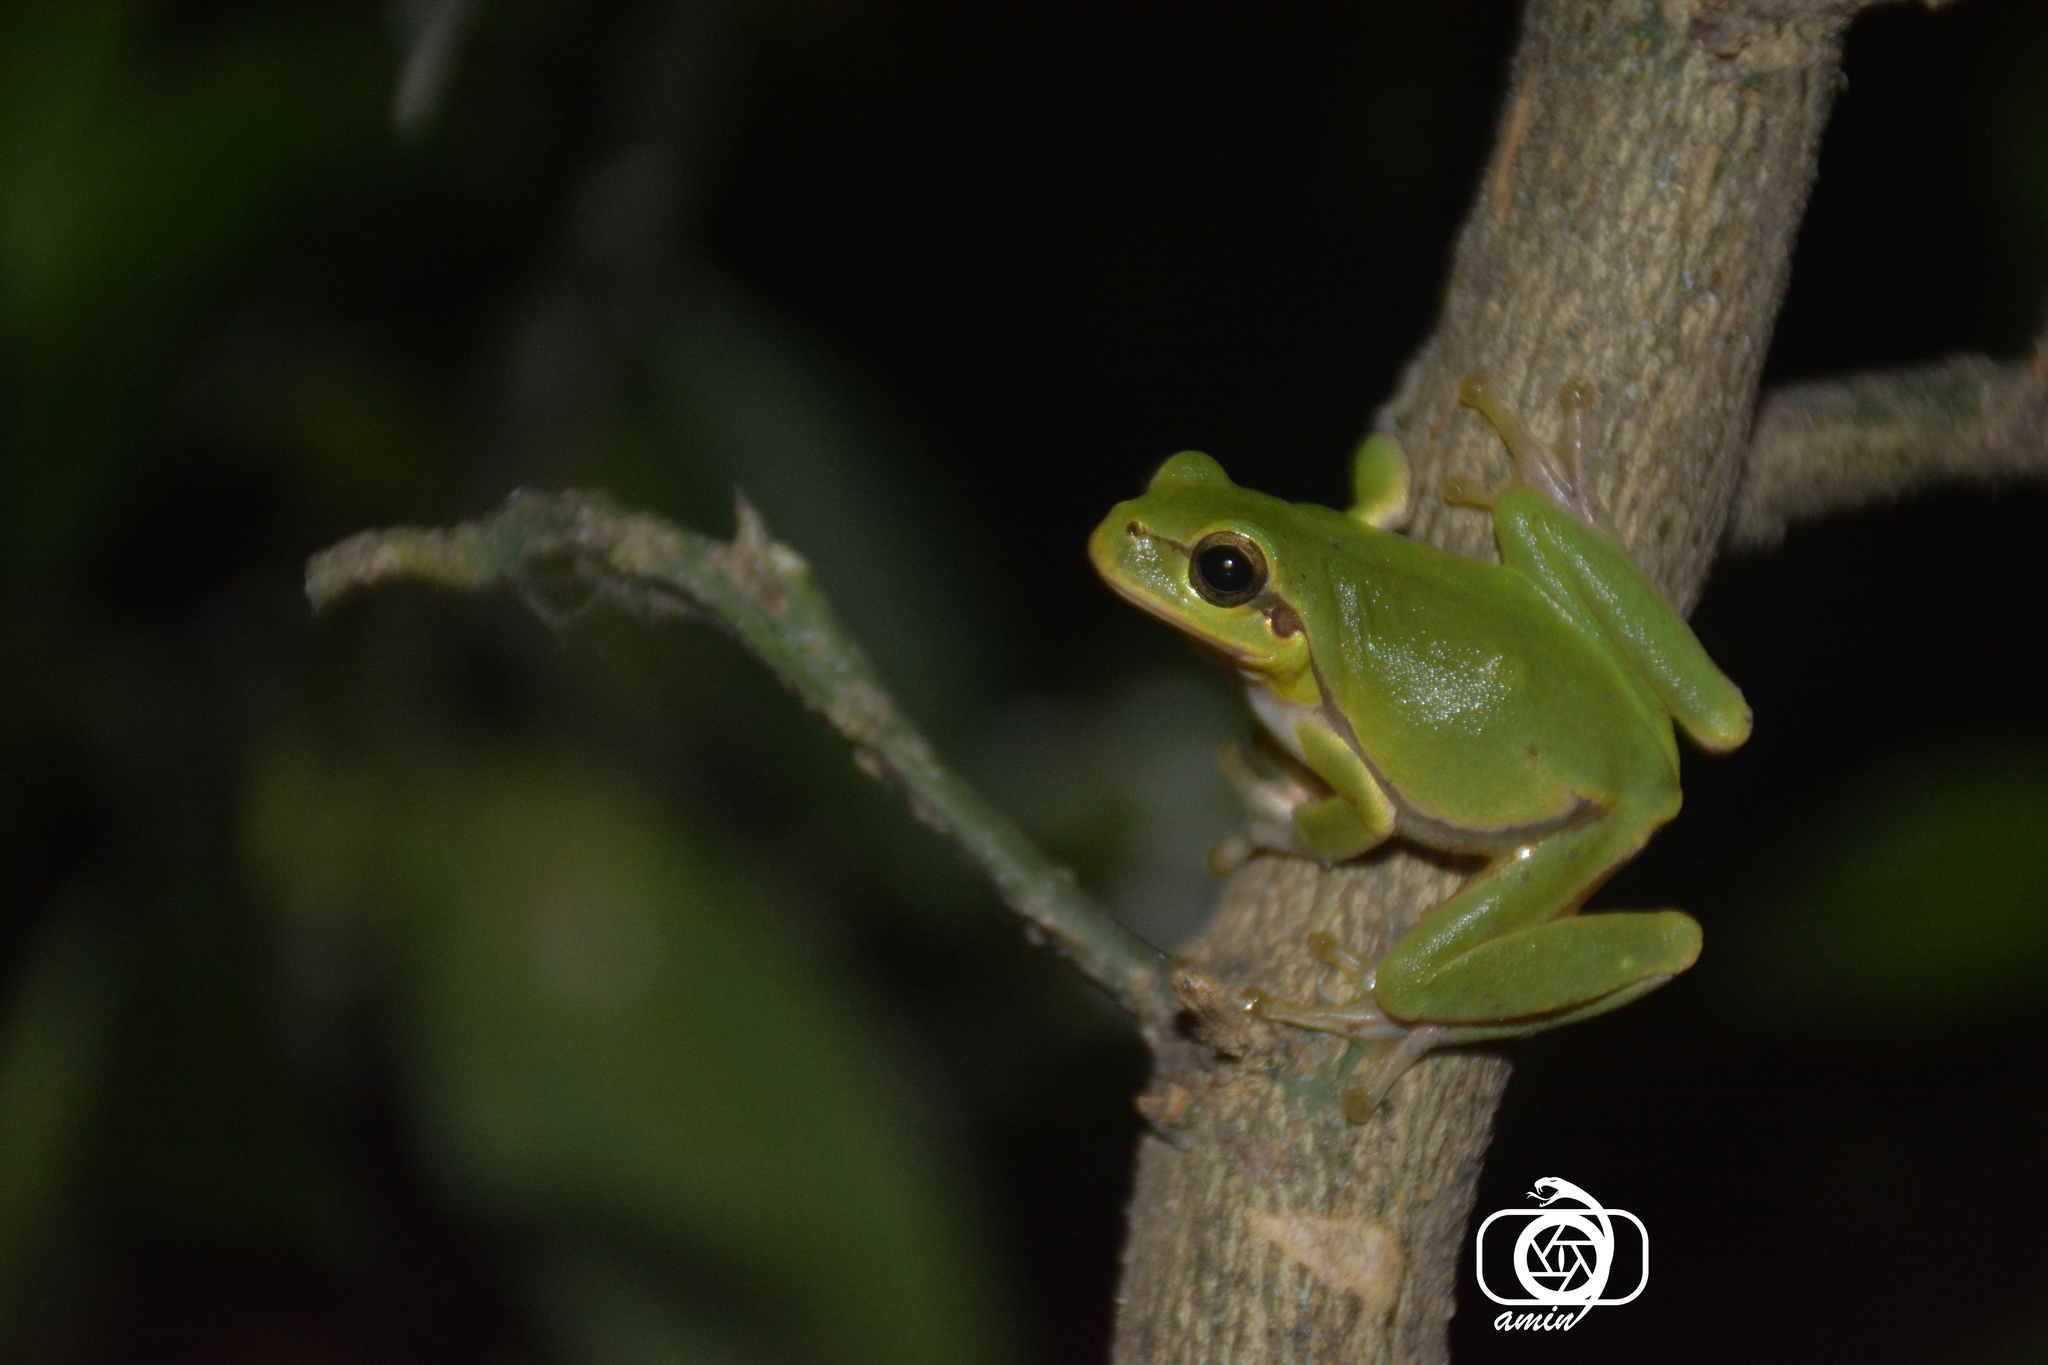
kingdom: Animalia
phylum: Chordata
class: Amphibia
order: Anura
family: Hylidae
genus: Hyla
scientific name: Hyla orientalis
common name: Caucasian treefrog
